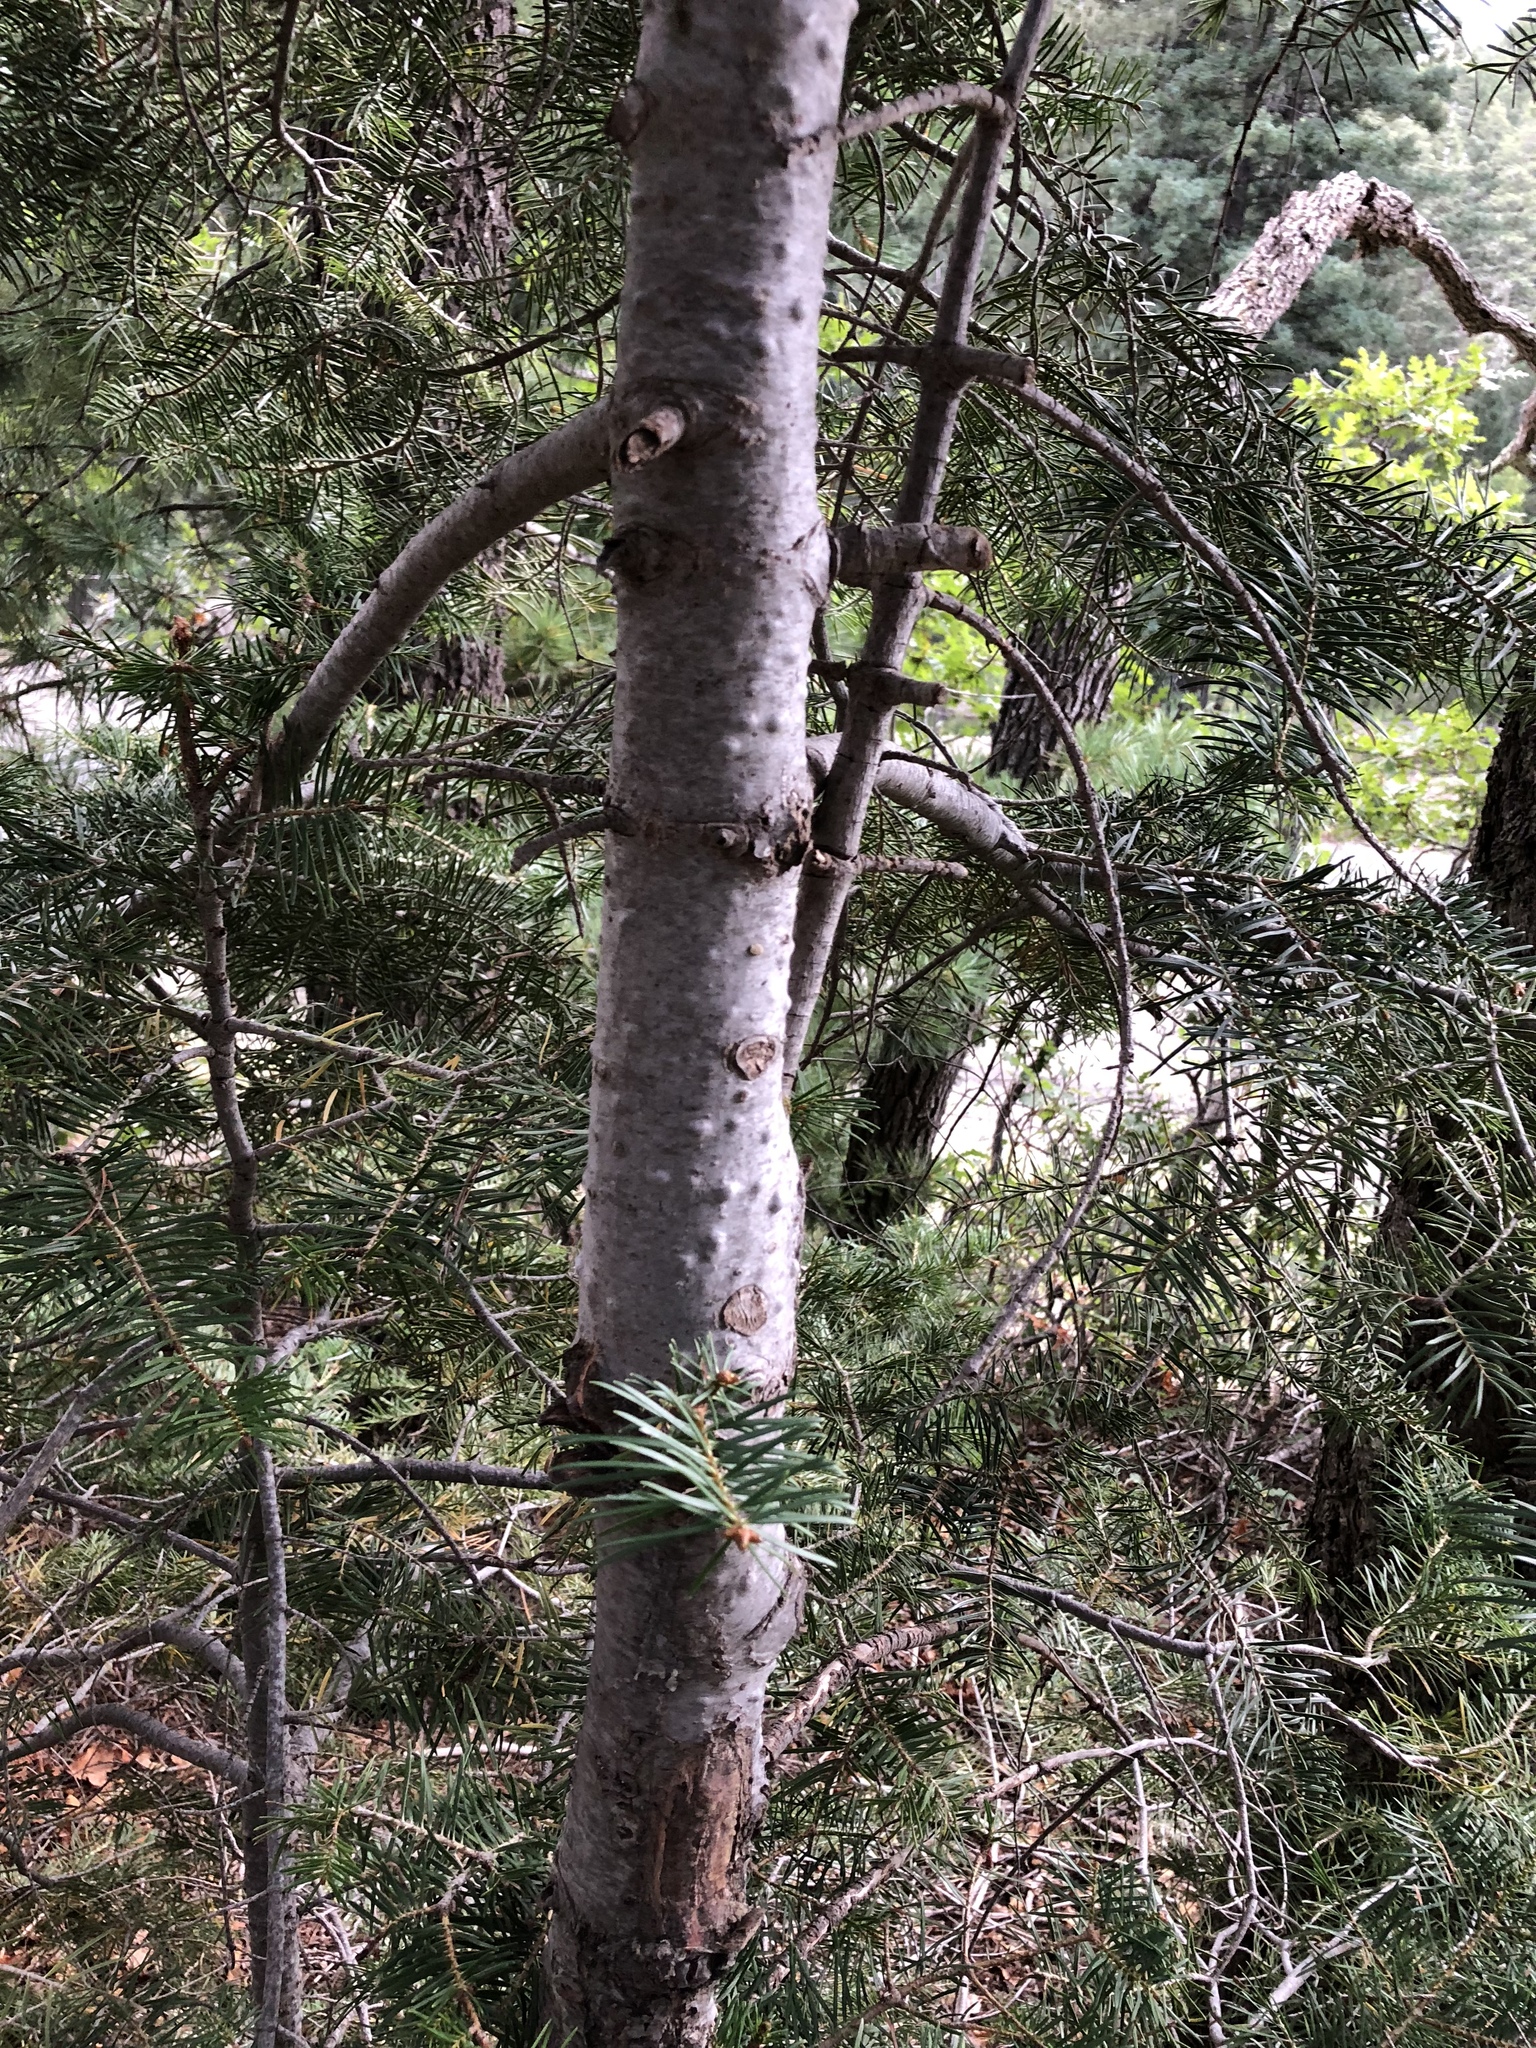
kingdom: Plantae
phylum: Tracheophyta
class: Pinopsida
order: Pinales
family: Pinaceae
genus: Abies
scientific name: Abies concolor
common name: Colorado fir
